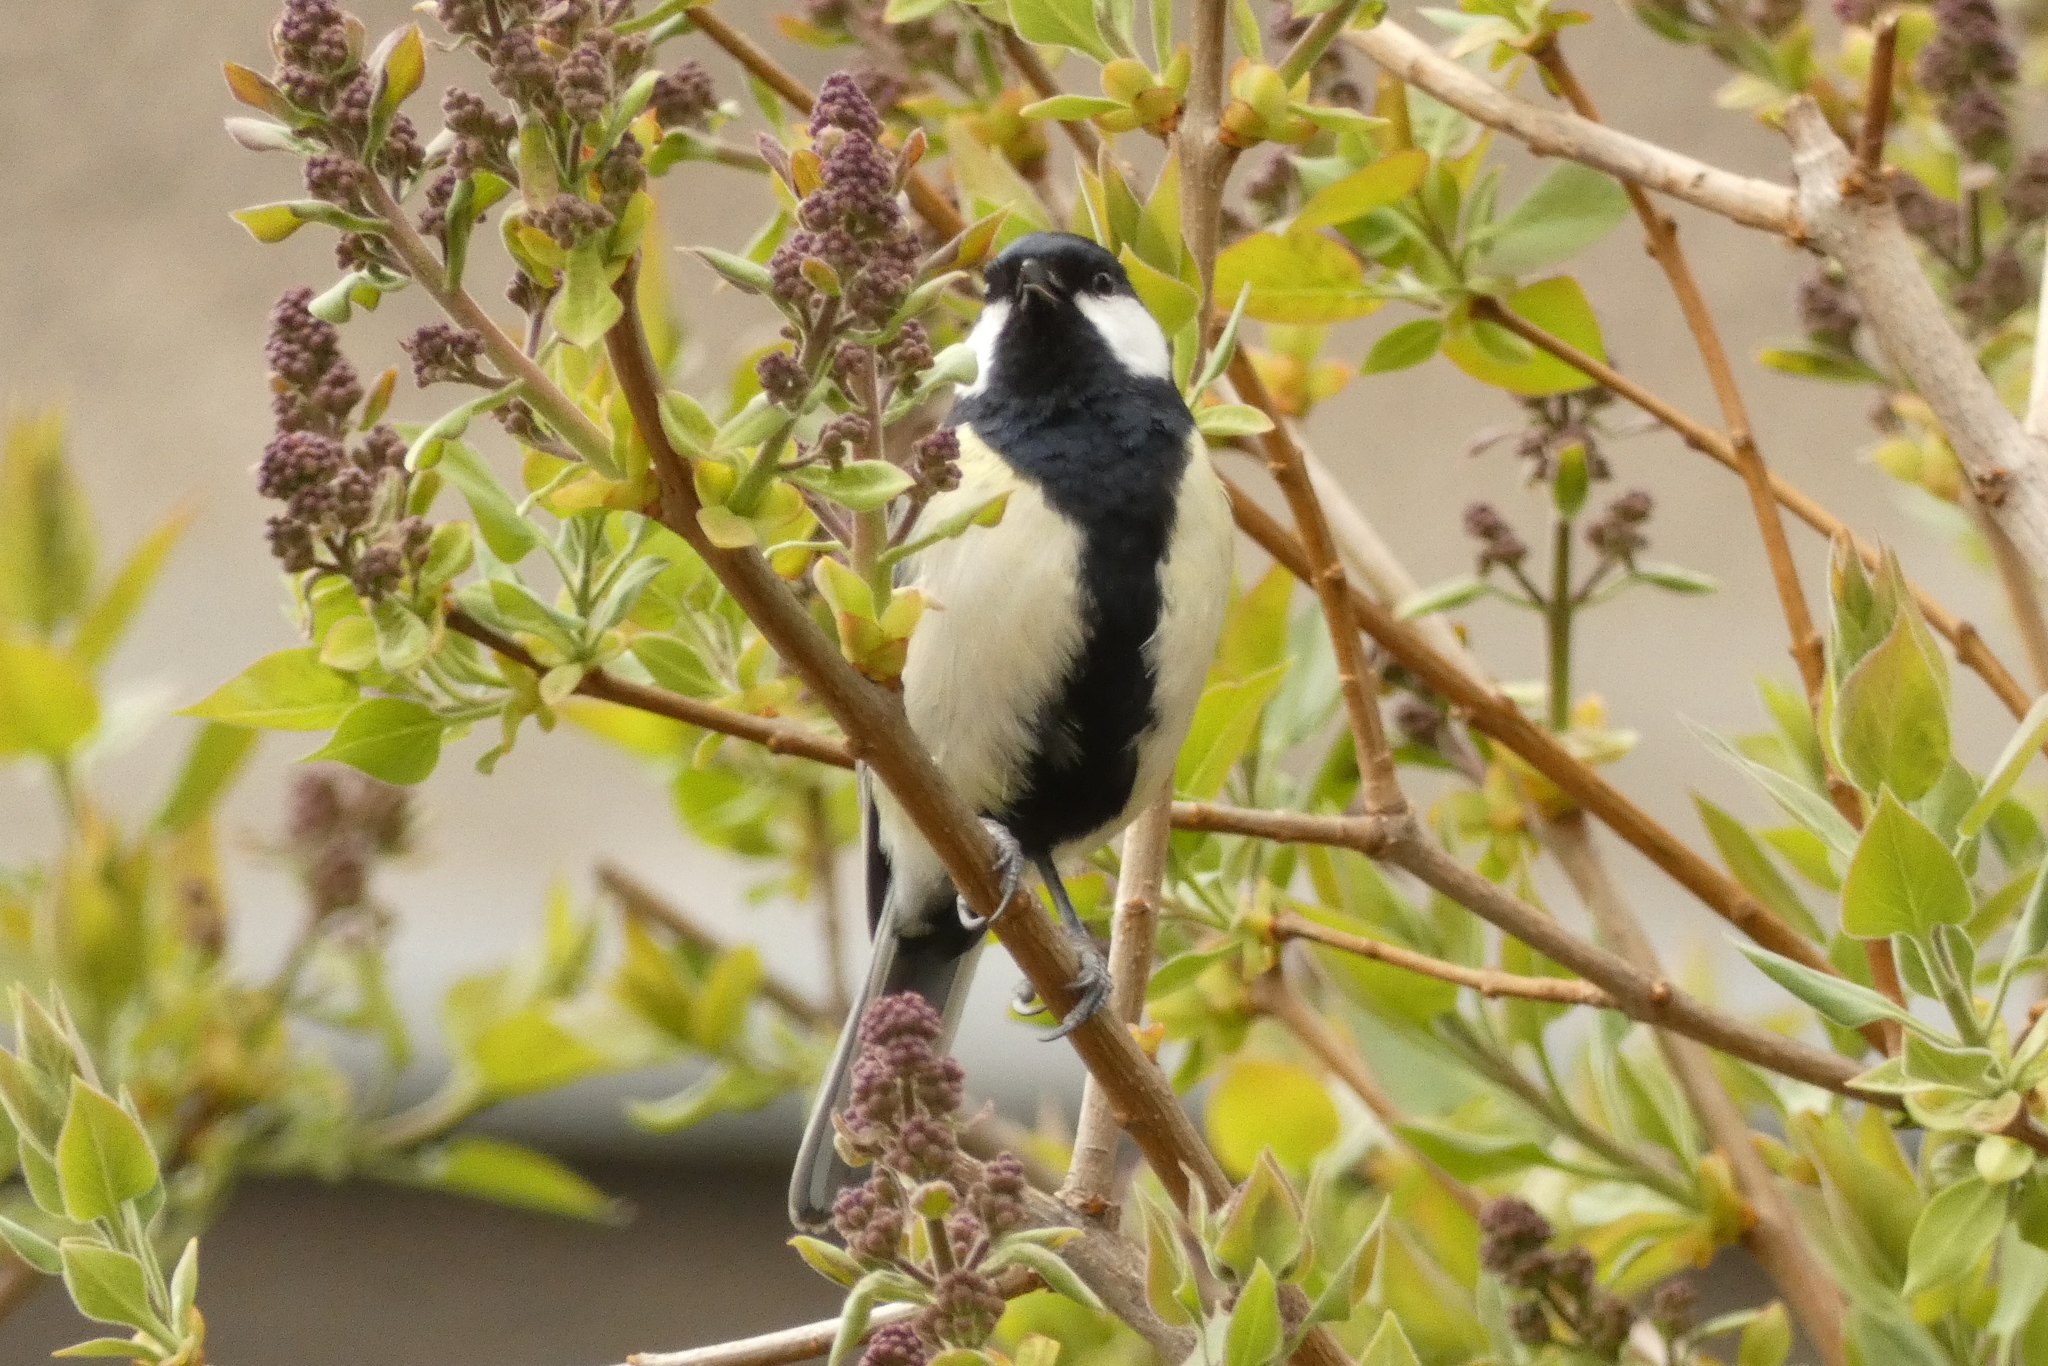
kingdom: Animalia
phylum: Chordata
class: Aves
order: Passeriformes
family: Paridae
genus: Parus
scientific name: Parus major
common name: Great tit
